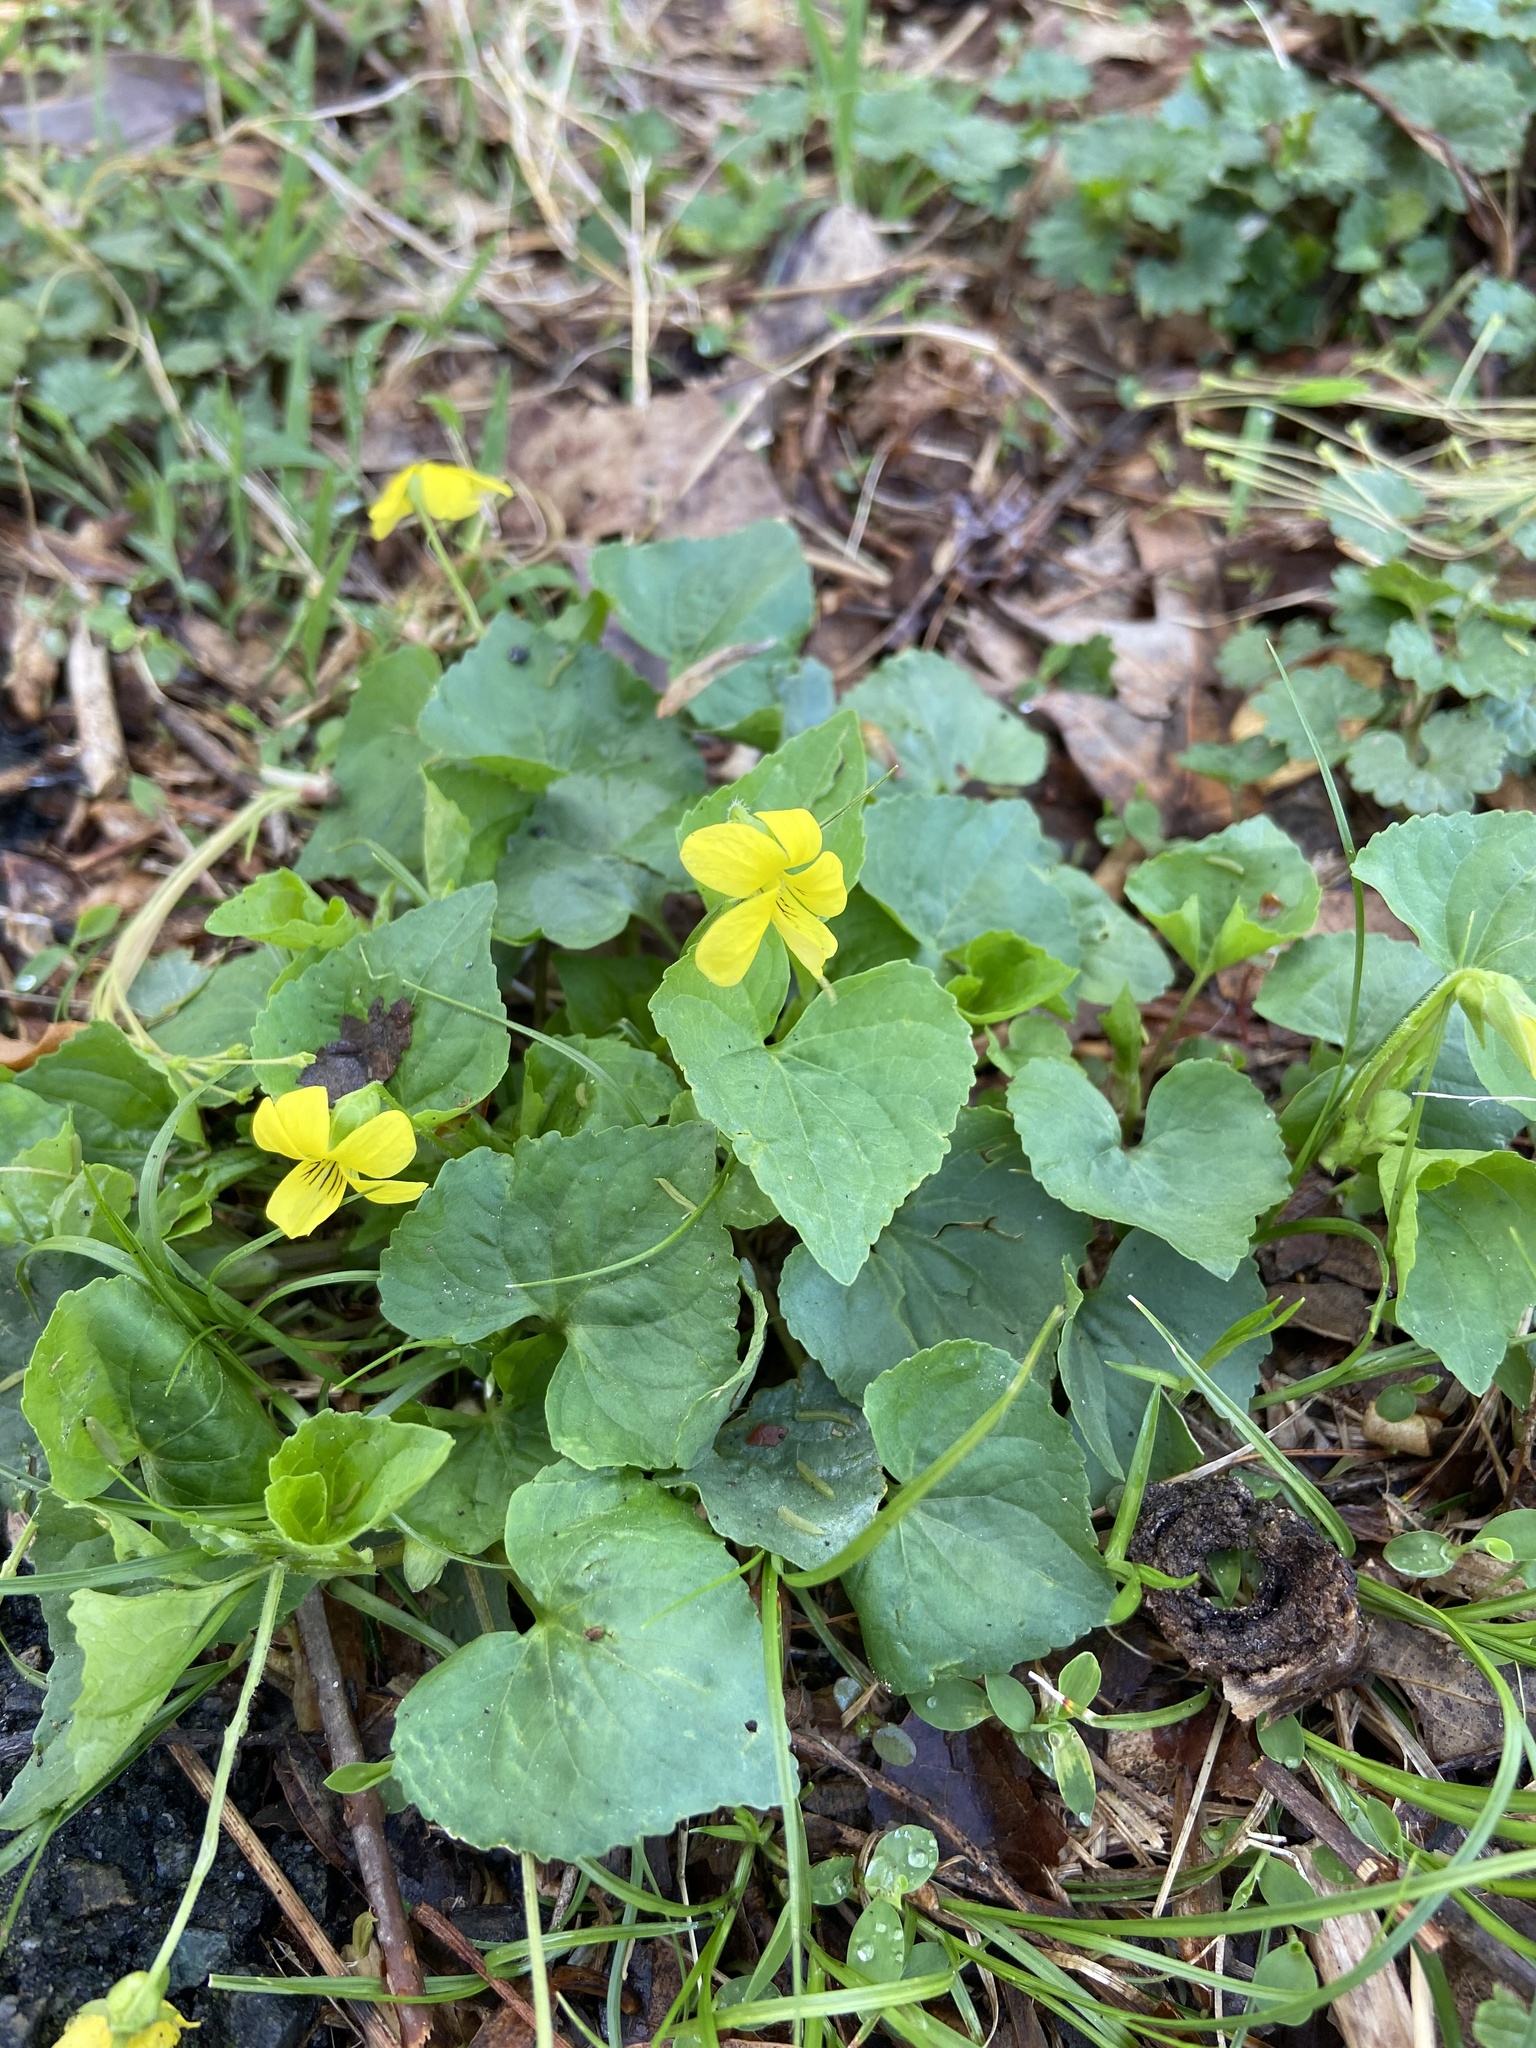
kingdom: Plantae
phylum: Tracheophyta
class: Magnoliopsida
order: Malpighiales
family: Violaceae
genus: Viola
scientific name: Viola eriocarpa
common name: Smooth yellow violet
